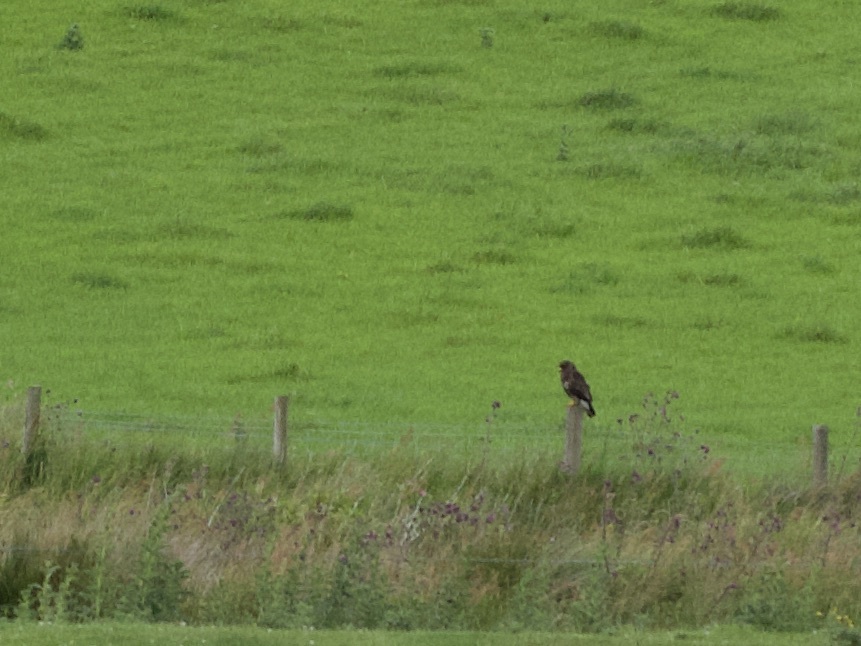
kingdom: Animalia
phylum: Chordata
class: Aves
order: Accipitriformes
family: Accipitridae
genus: Buteo
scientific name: Buteo buteo
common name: Common buzzard
